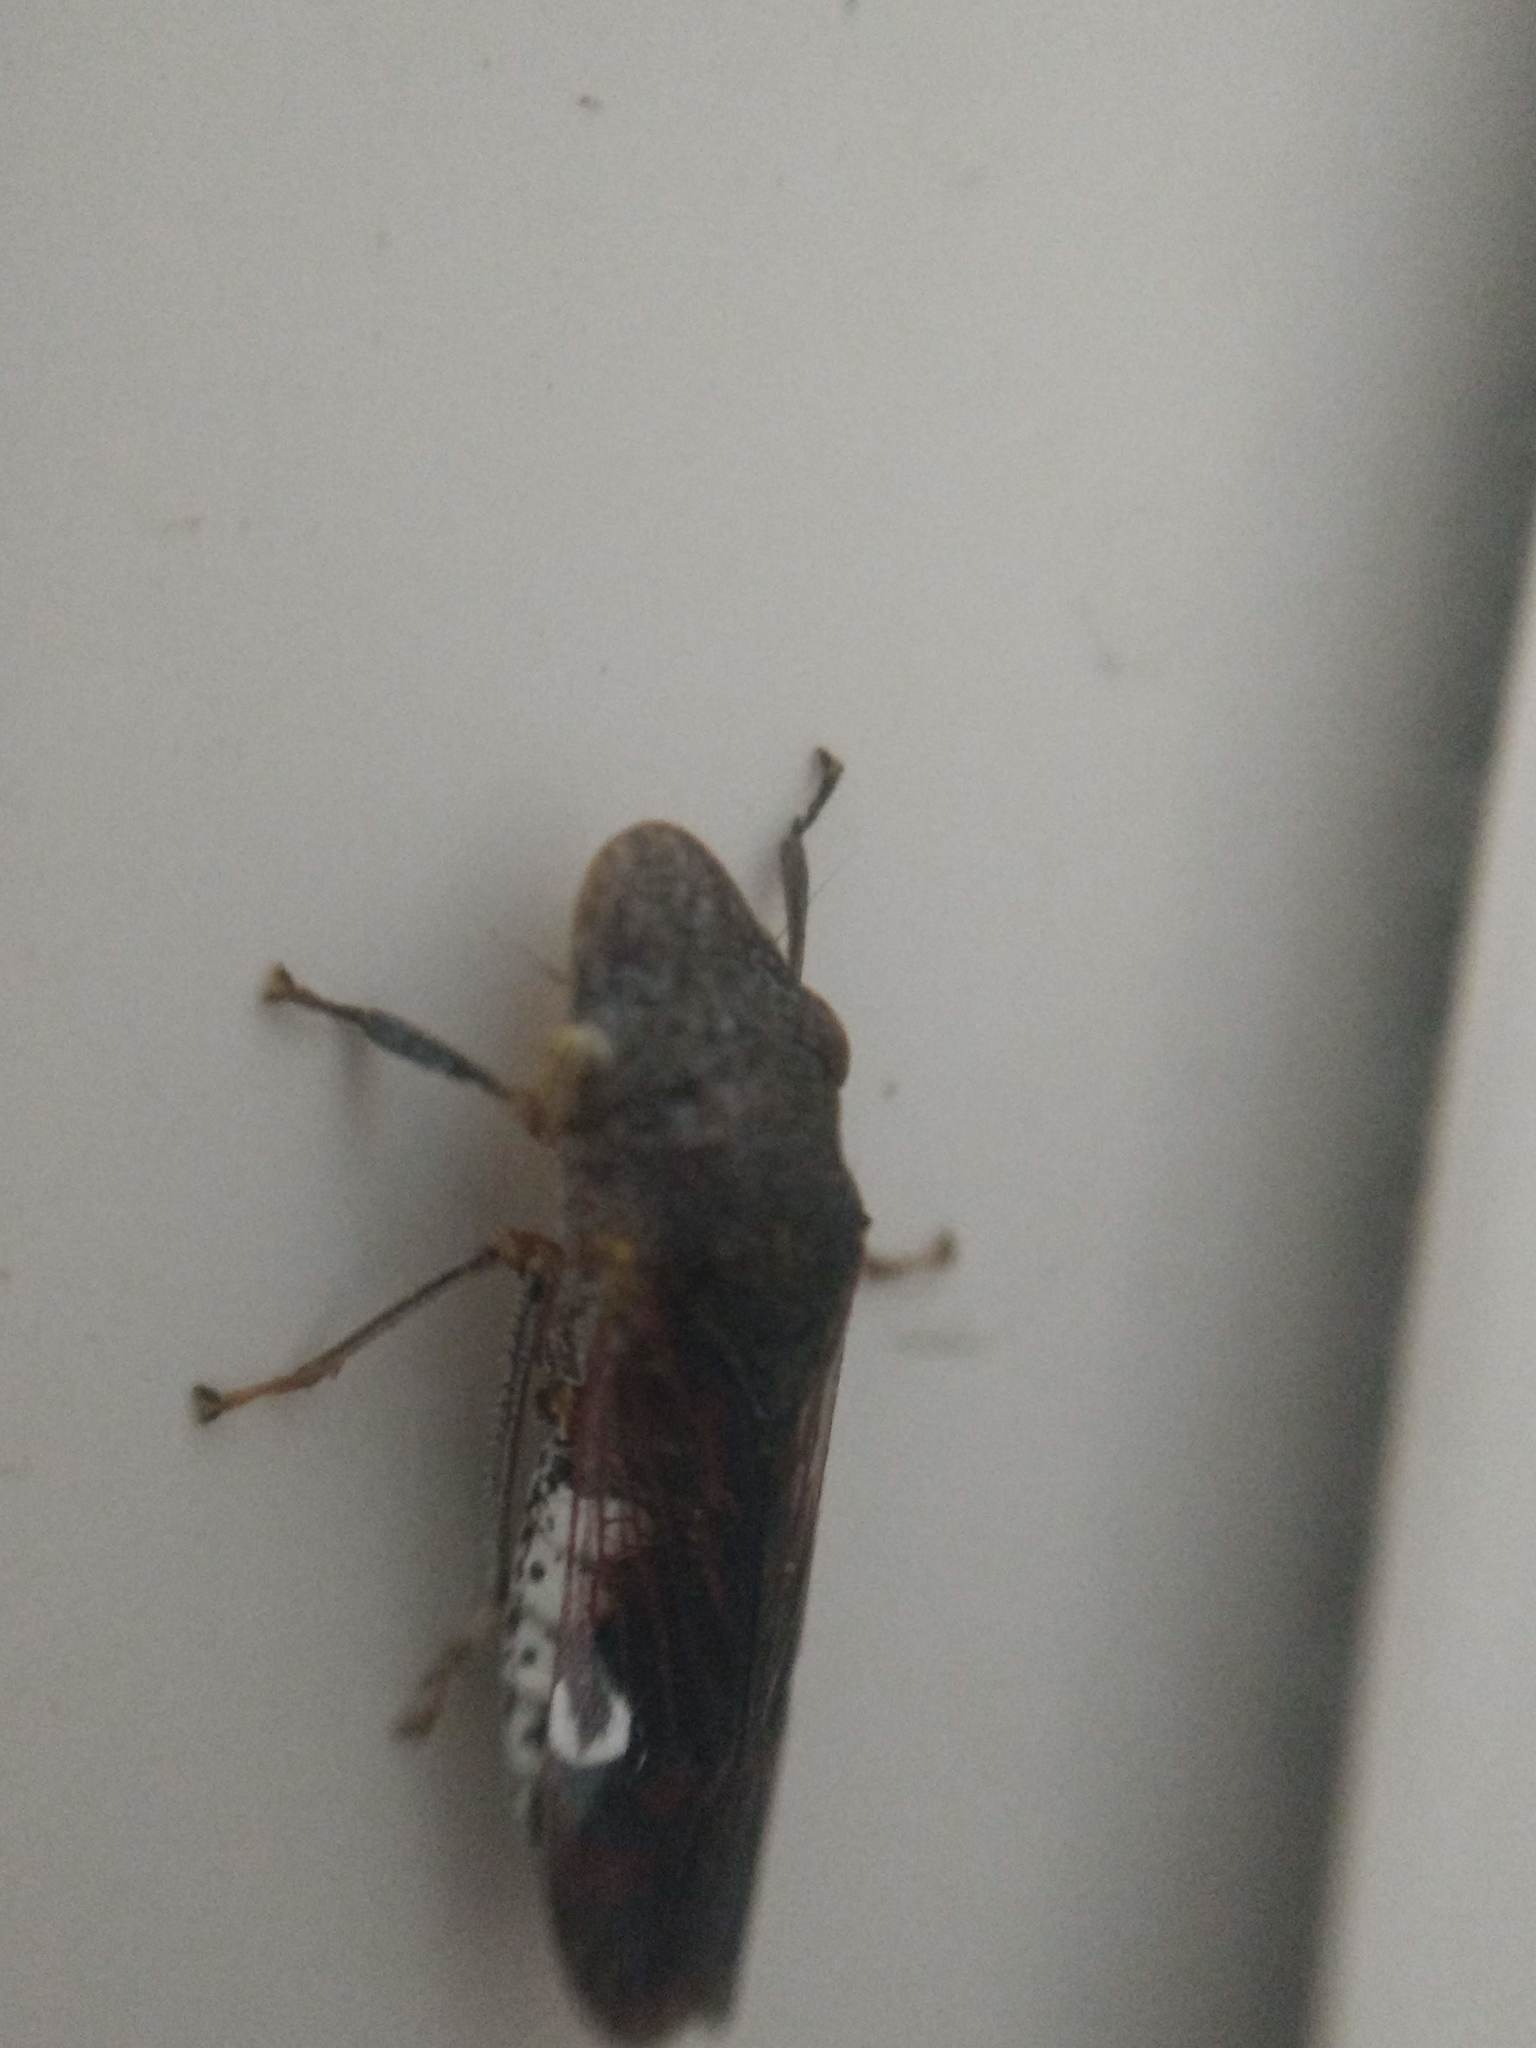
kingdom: Animalia
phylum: Arthropoda
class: Insecta
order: Hemiptera
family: Cicadellidae
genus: Homalodisca
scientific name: Homalodisca vitripennis
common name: Glassy-winged sharpshooter
